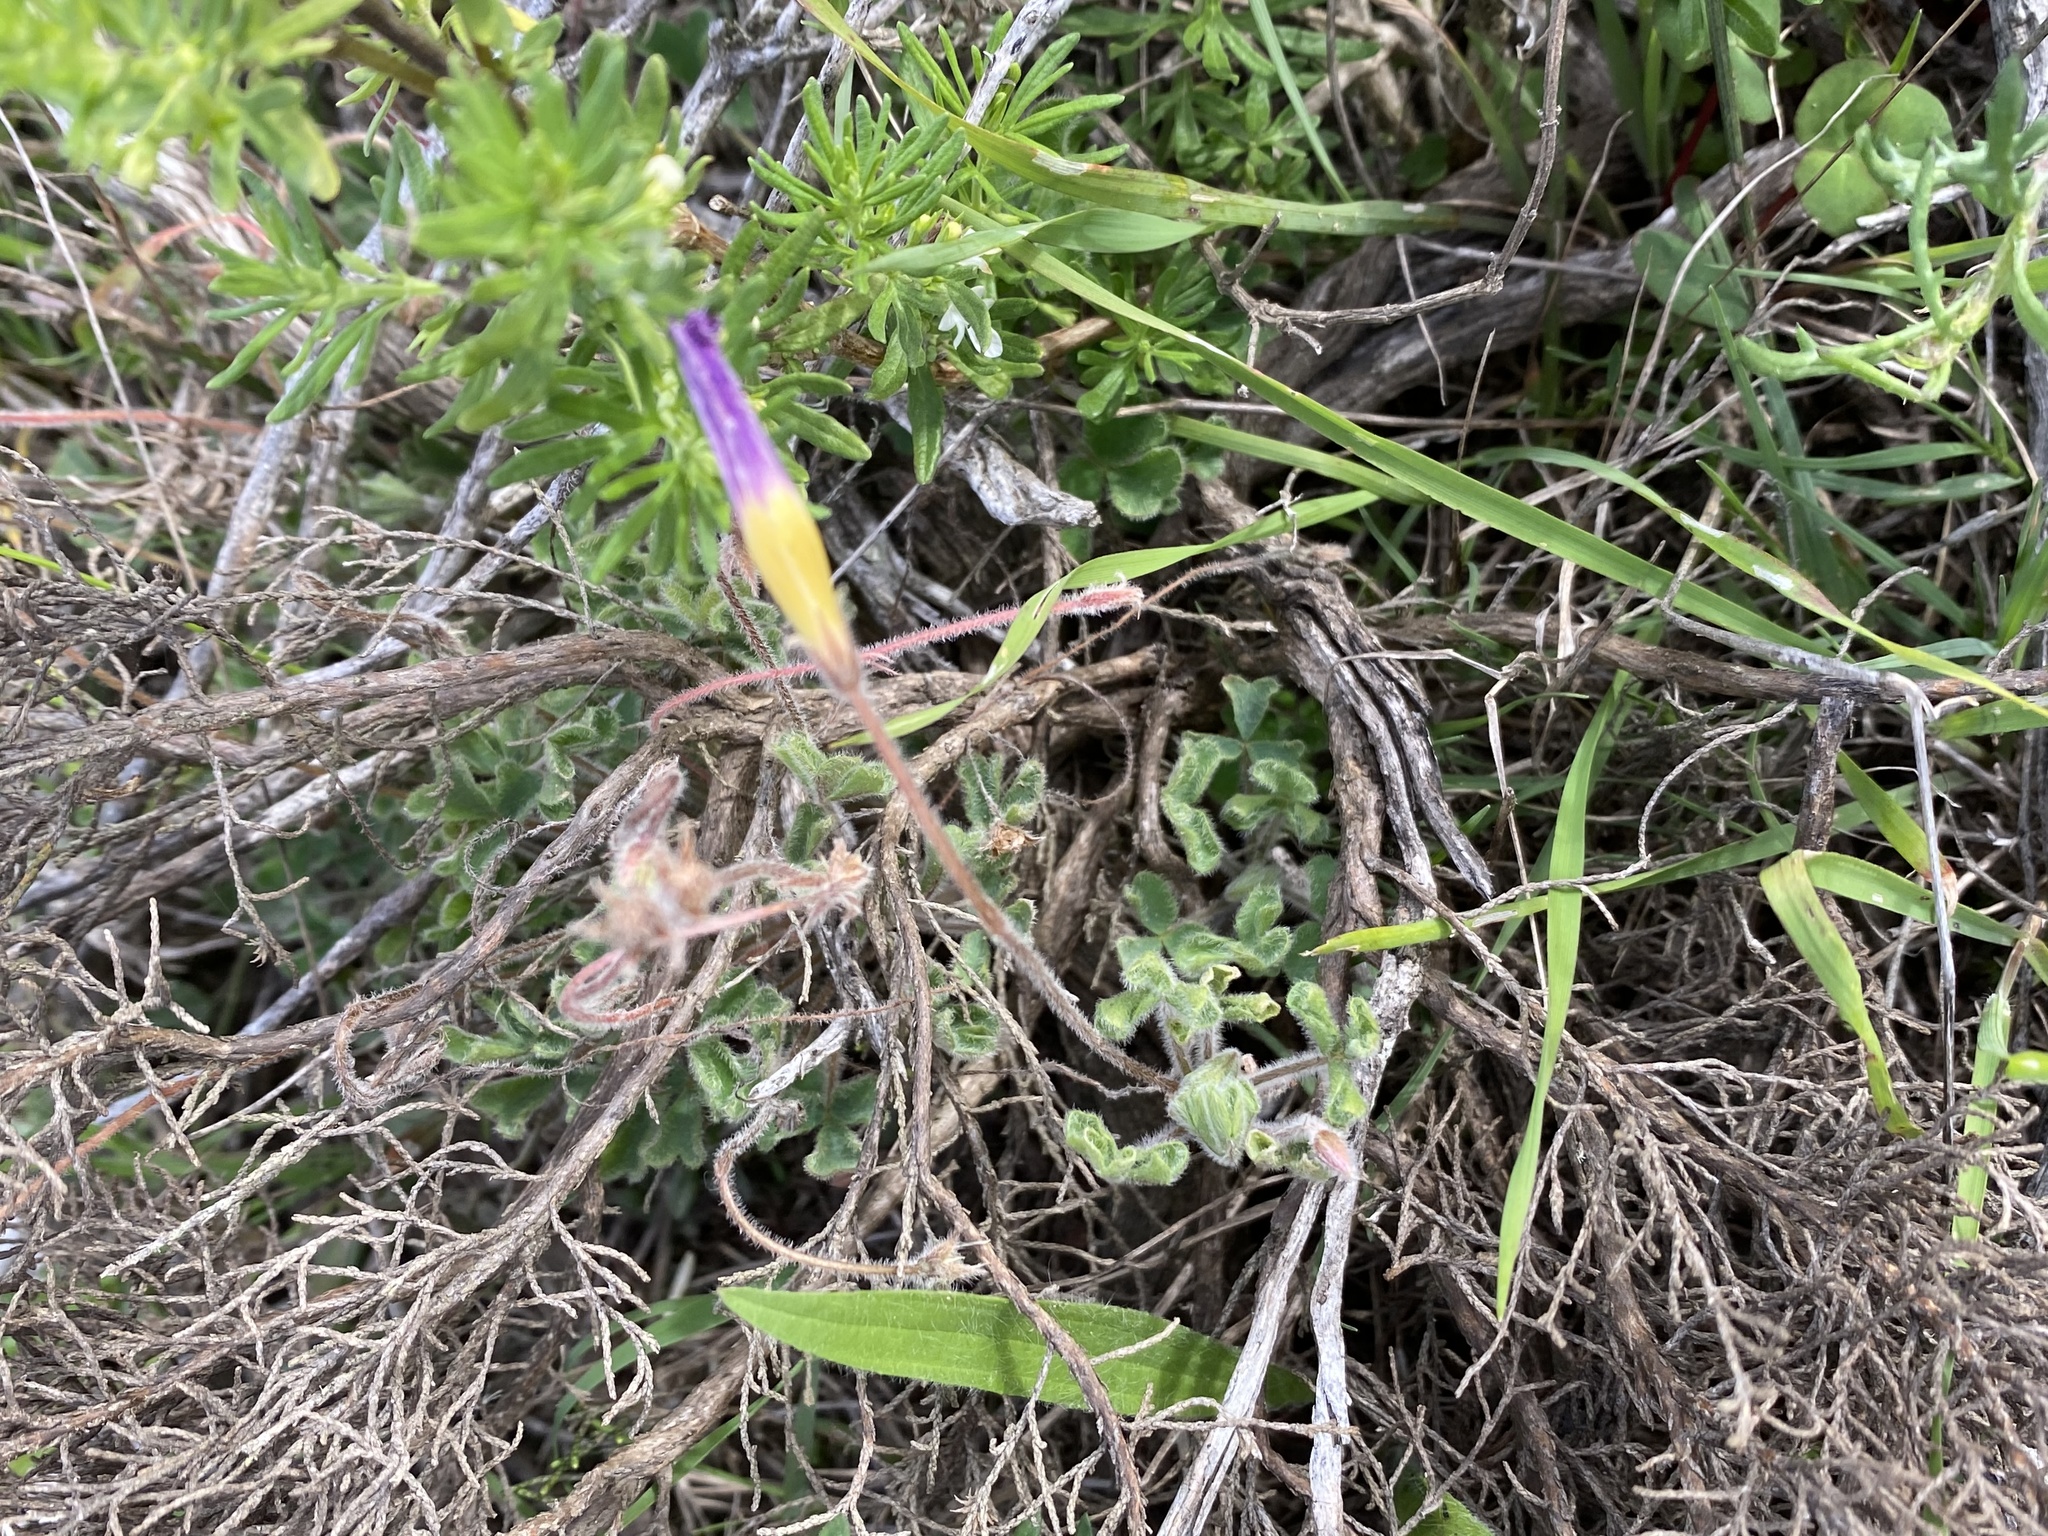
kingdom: Plantae
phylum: Tracheophyta
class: Magnoliopsida
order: Oxalidales
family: Oxalidaceae
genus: Oxalis
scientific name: Oxalis imbricata
